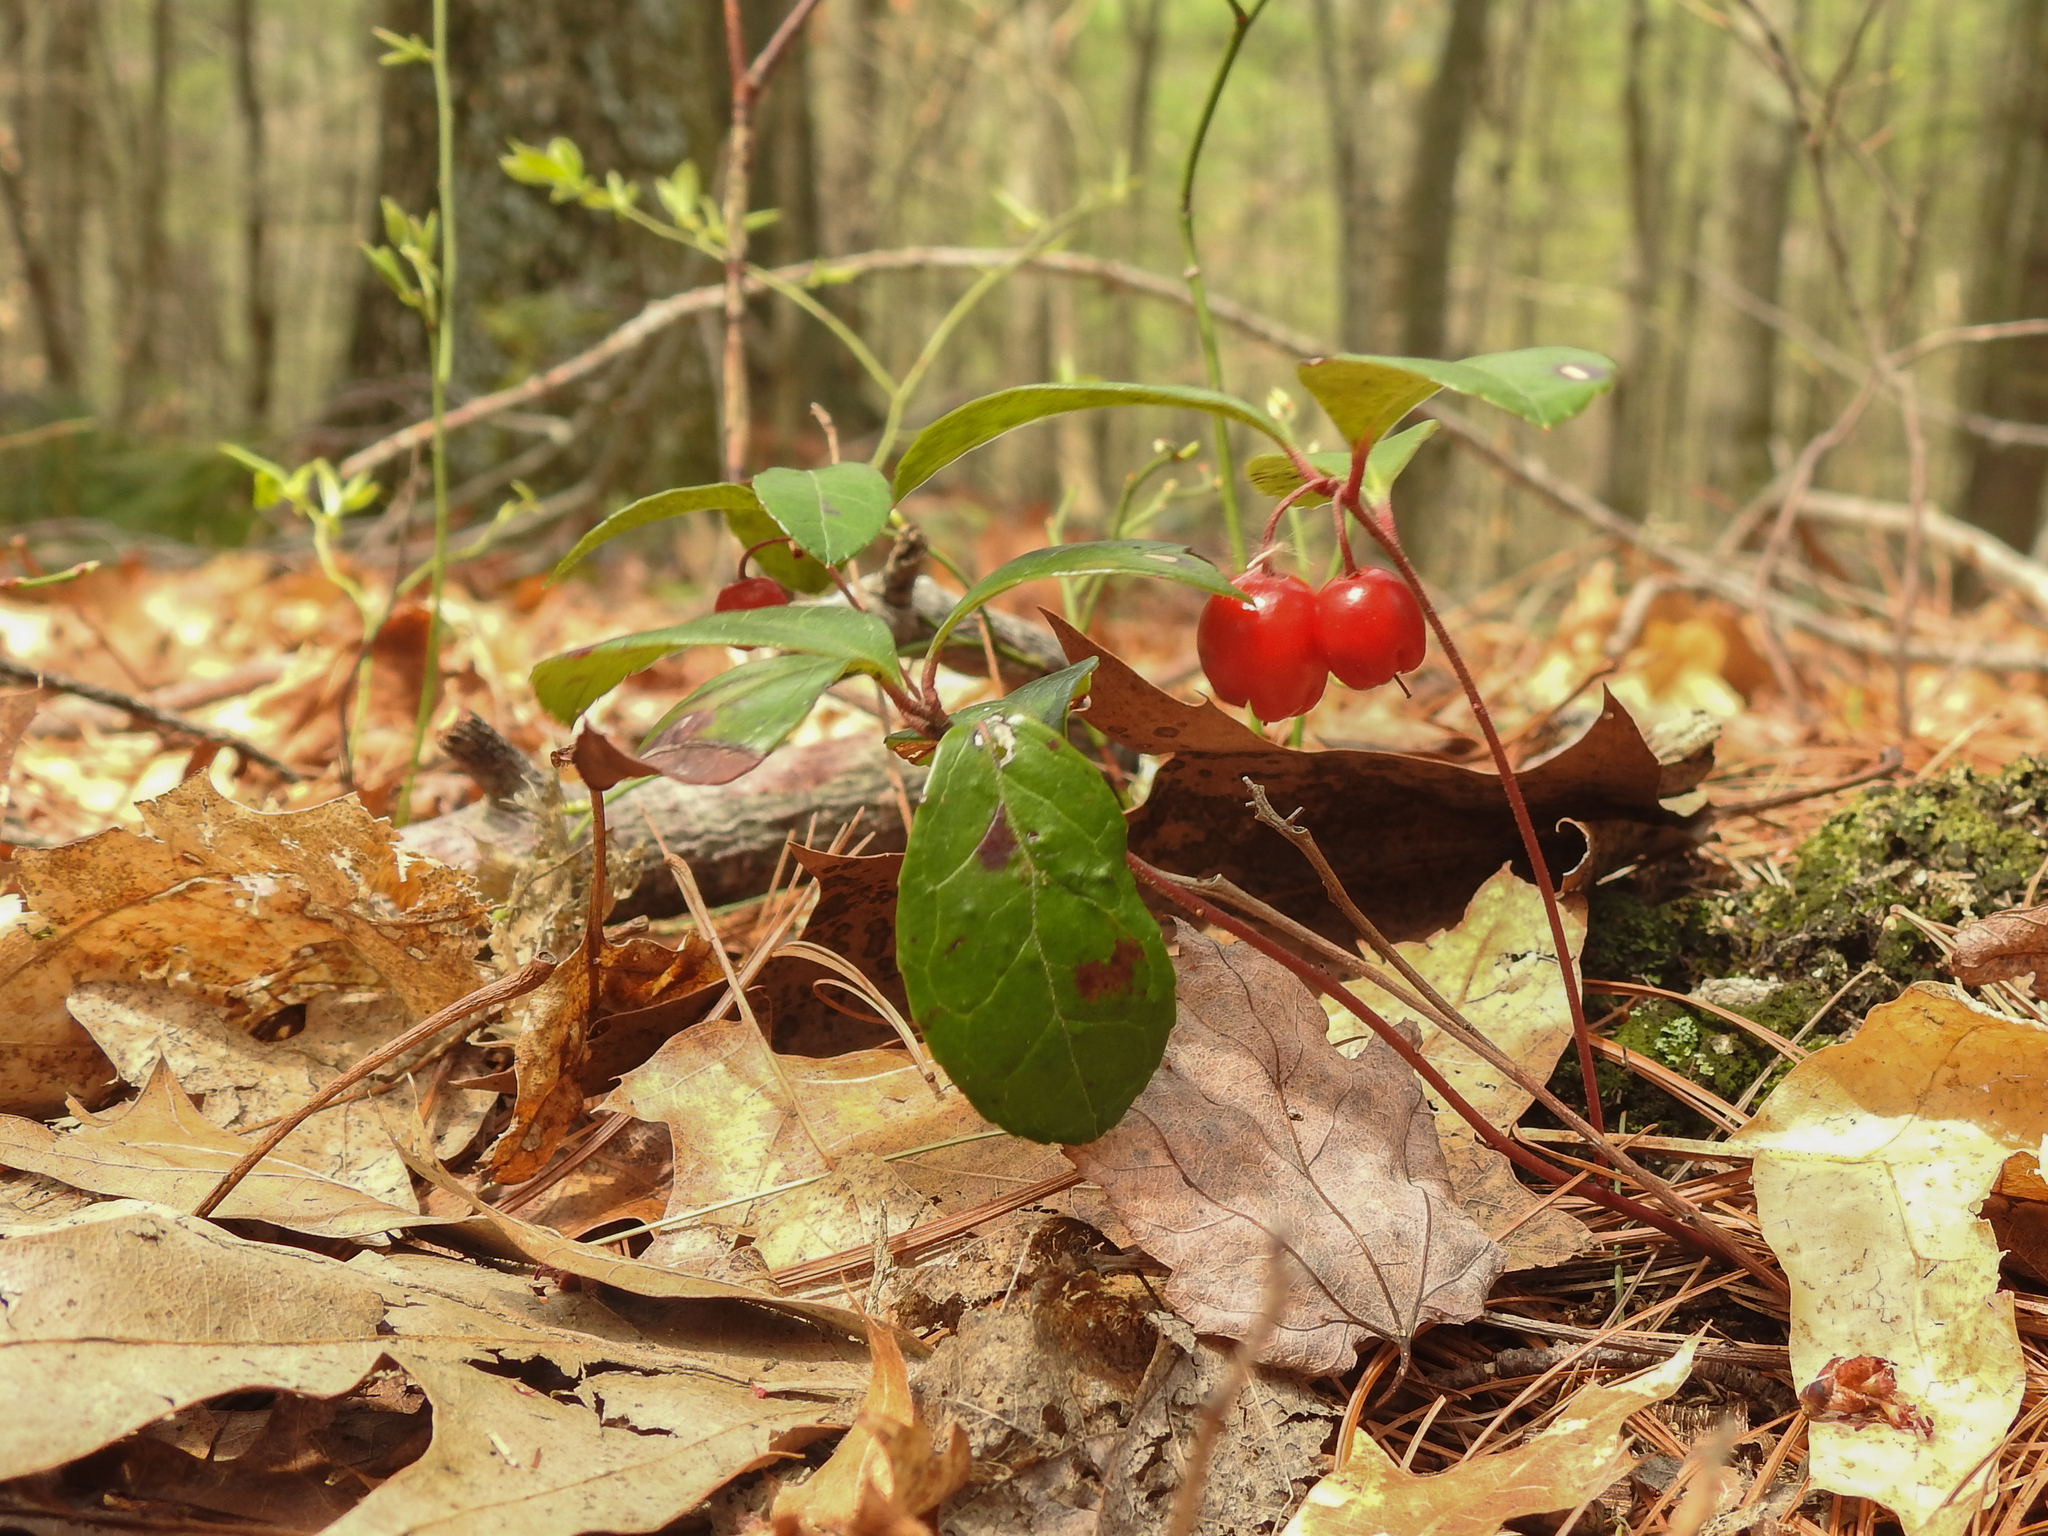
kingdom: Plantae
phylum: Tracheophyta
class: Magnoliopsida
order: Ericales
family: Ericaceae
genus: Gaultheria
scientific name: Gaultheria procumbens
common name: Checkerberry
